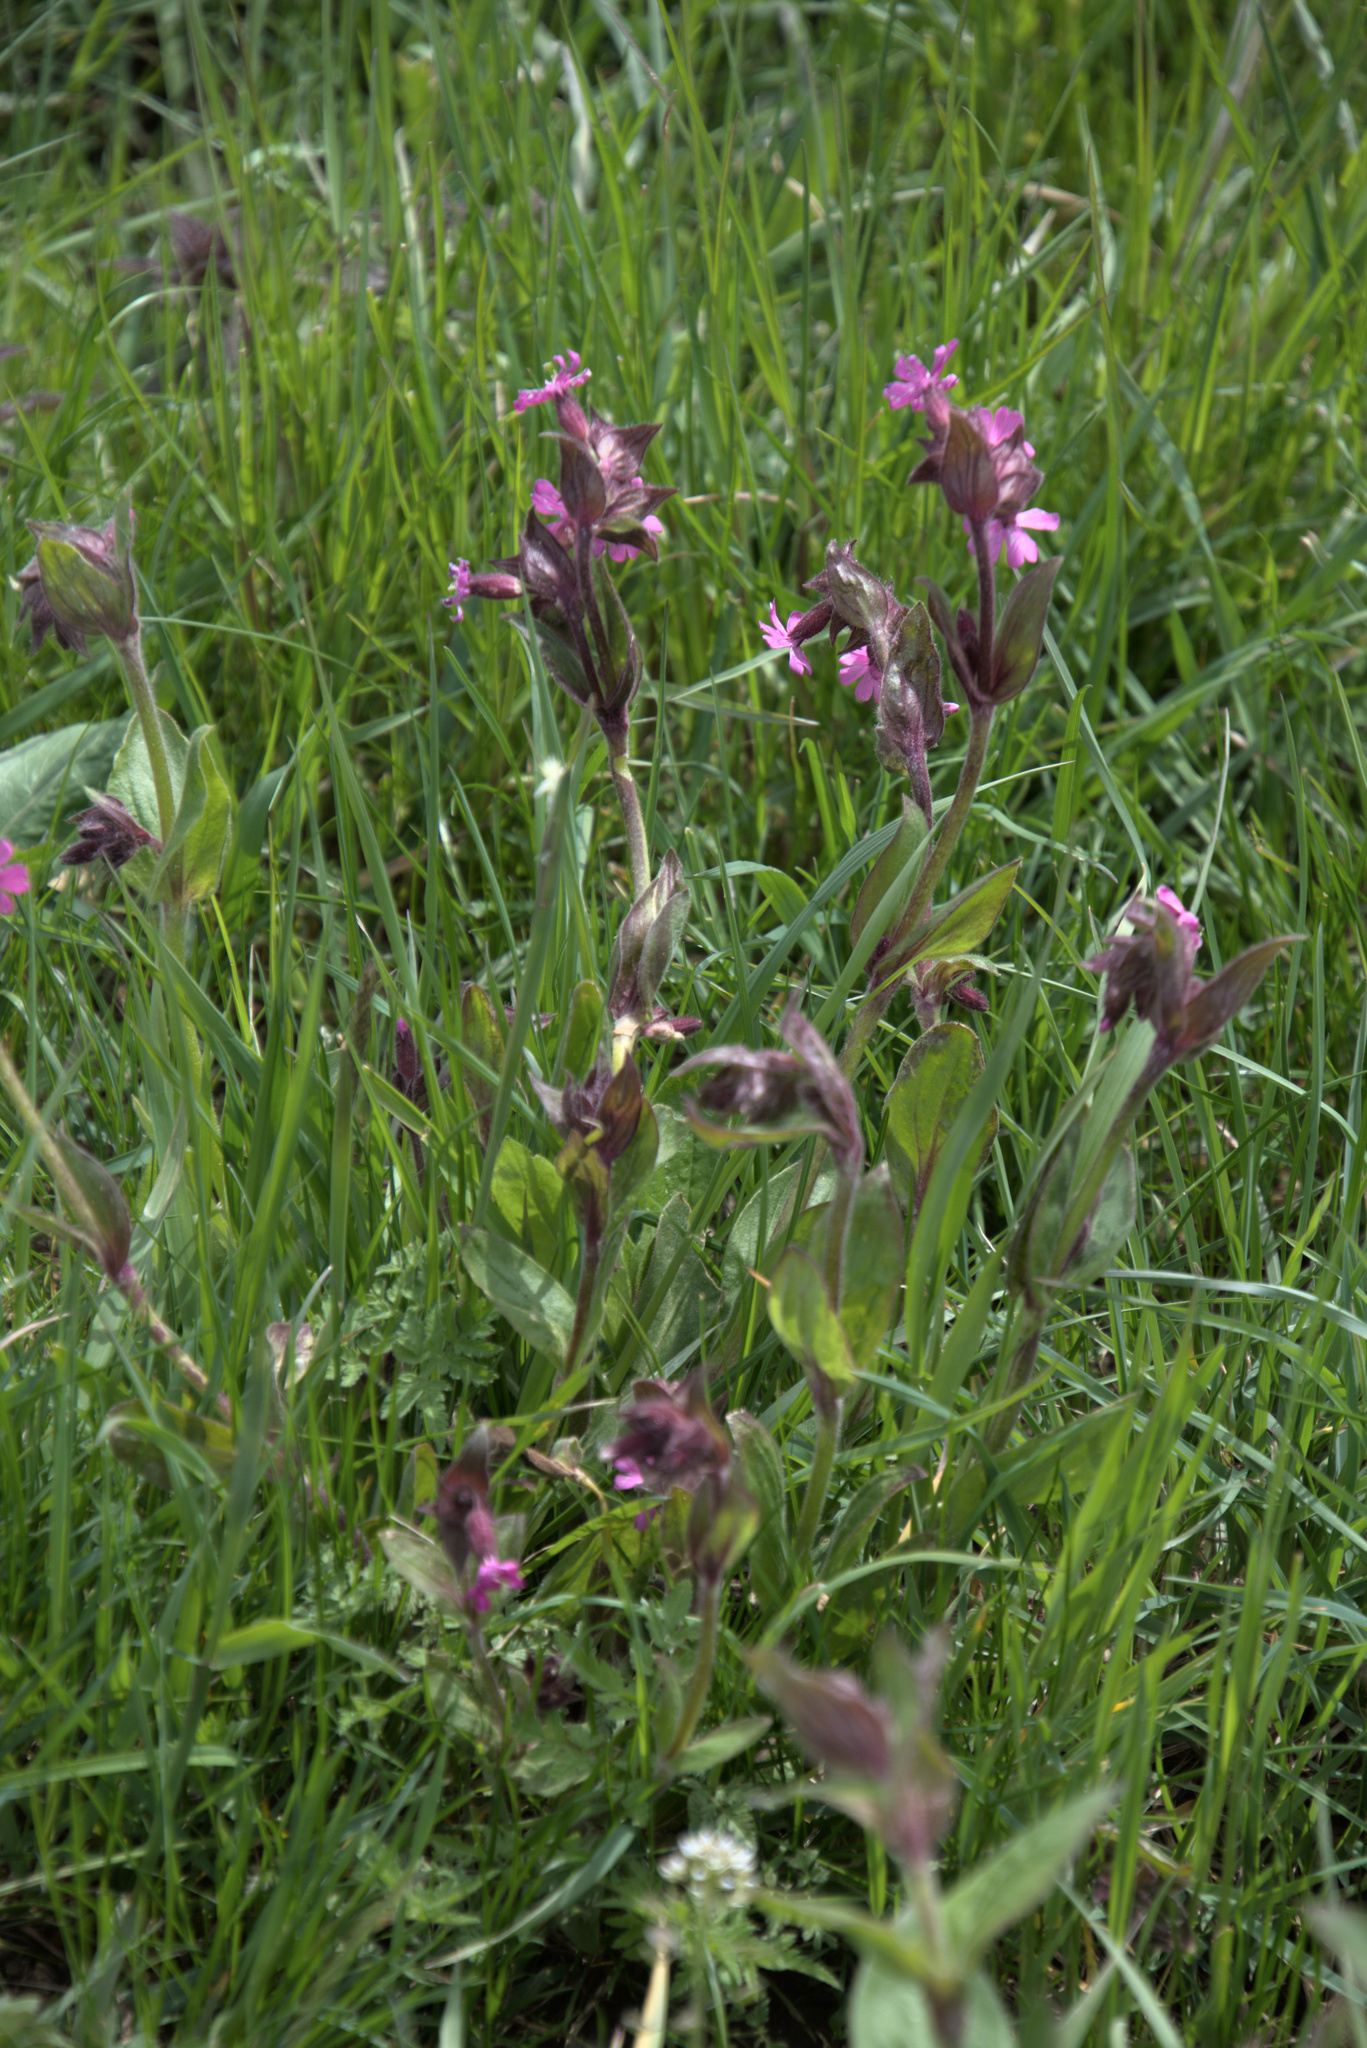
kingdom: Plantae
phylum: Tracheophyta
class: Magnoliopsida
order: Caryophyllales
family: Caryophyllaceae
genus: Silene
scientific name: Silene dioica
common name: Red campion
